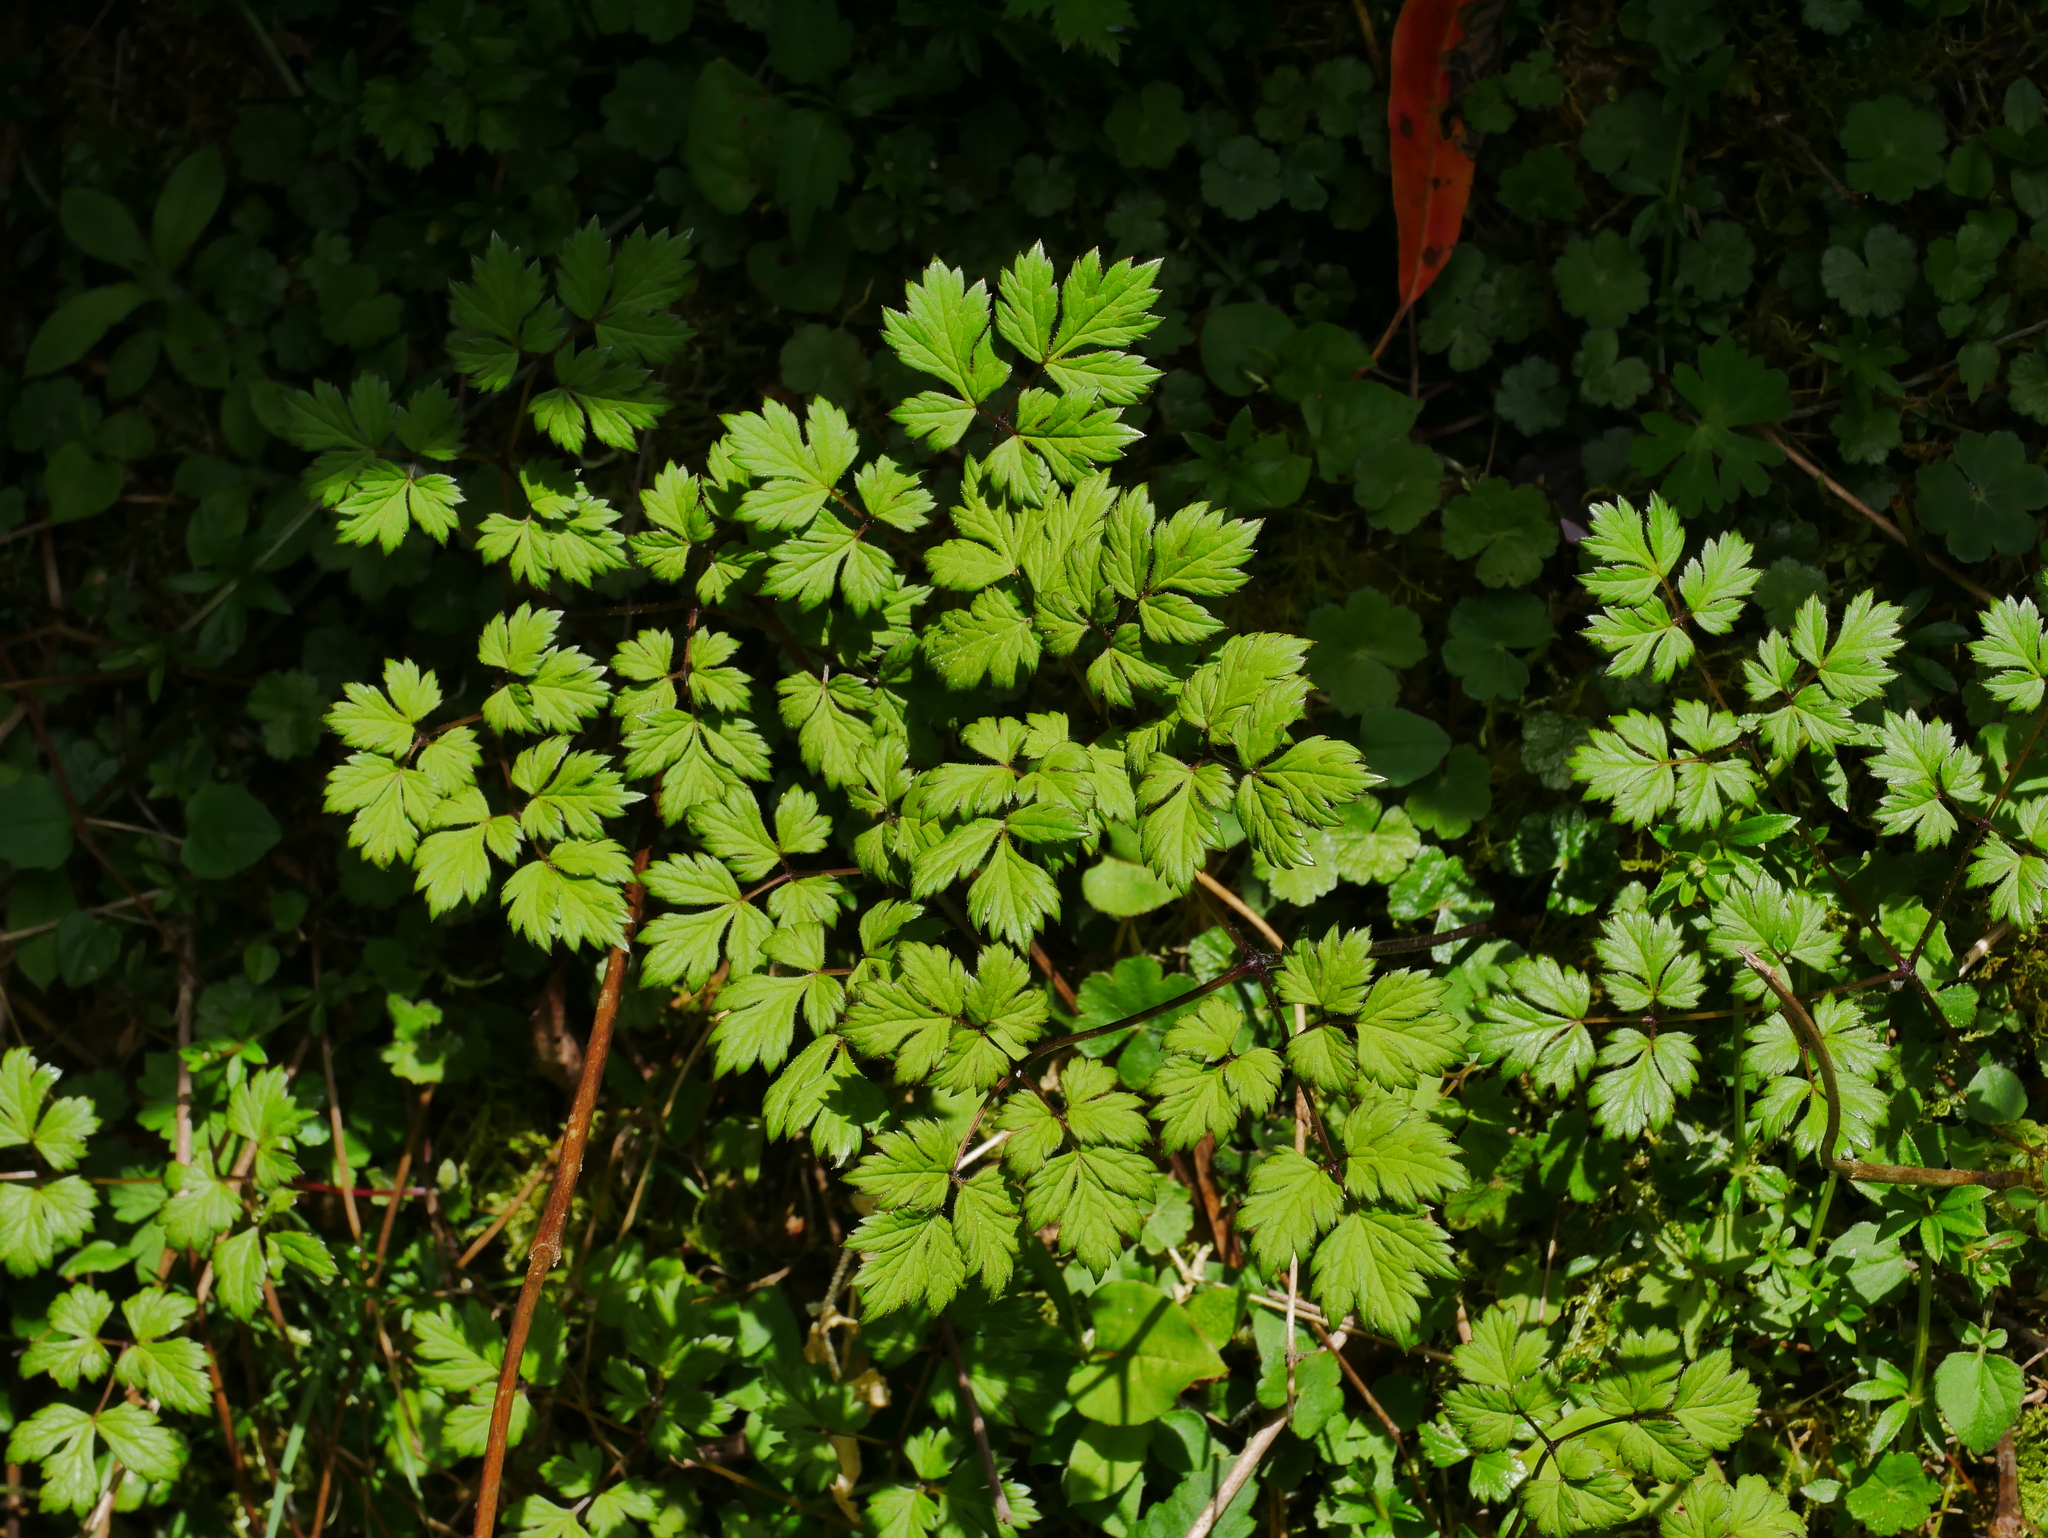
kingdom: Plantae
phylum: Tracheophyta
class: Magnoliopsida
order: Ranunculales
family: Ranunculaceae
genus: Actaea
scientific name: Actaea simplex
